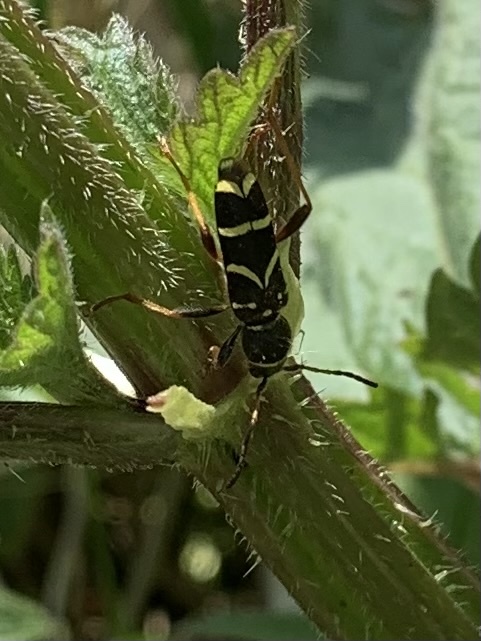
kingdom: Animalia
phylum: Arthropoda
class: Insecta
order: Coleoptera
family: Cerambycidae
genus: Clytus
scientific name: Clytus arietis
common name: Wasp beetle
